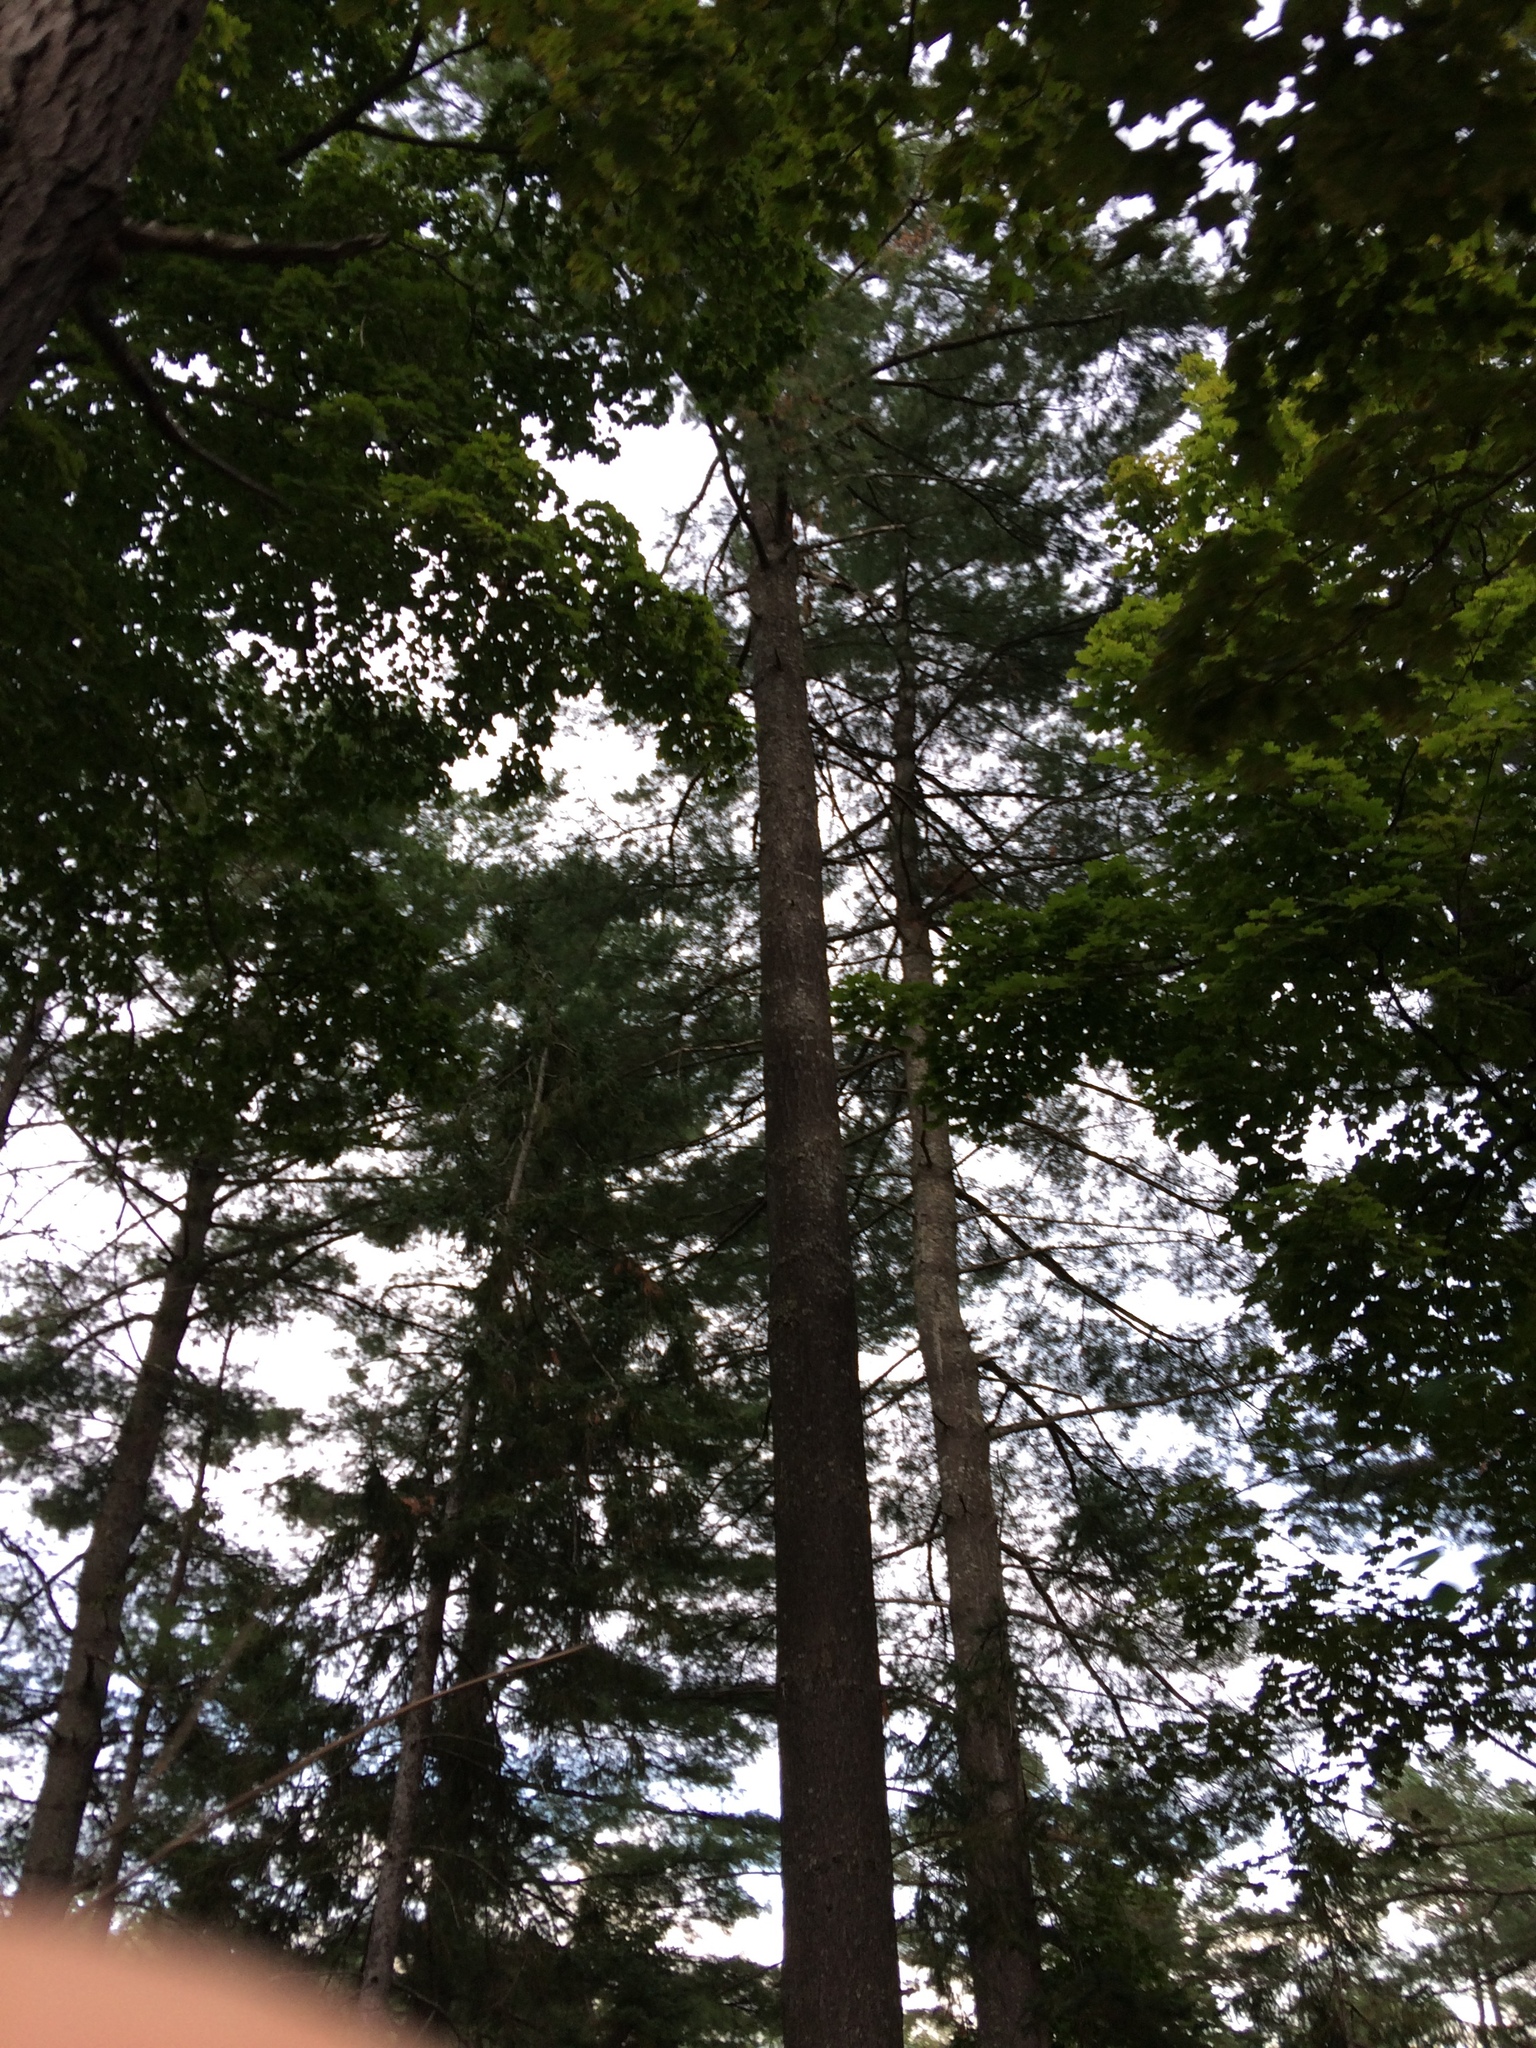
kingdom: Plantae
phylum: Tracheophyta
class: Pinopsida
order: Pinales
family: Pinaceae
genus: Pinus
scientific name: Pinus strobus
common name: Weymouth pine
